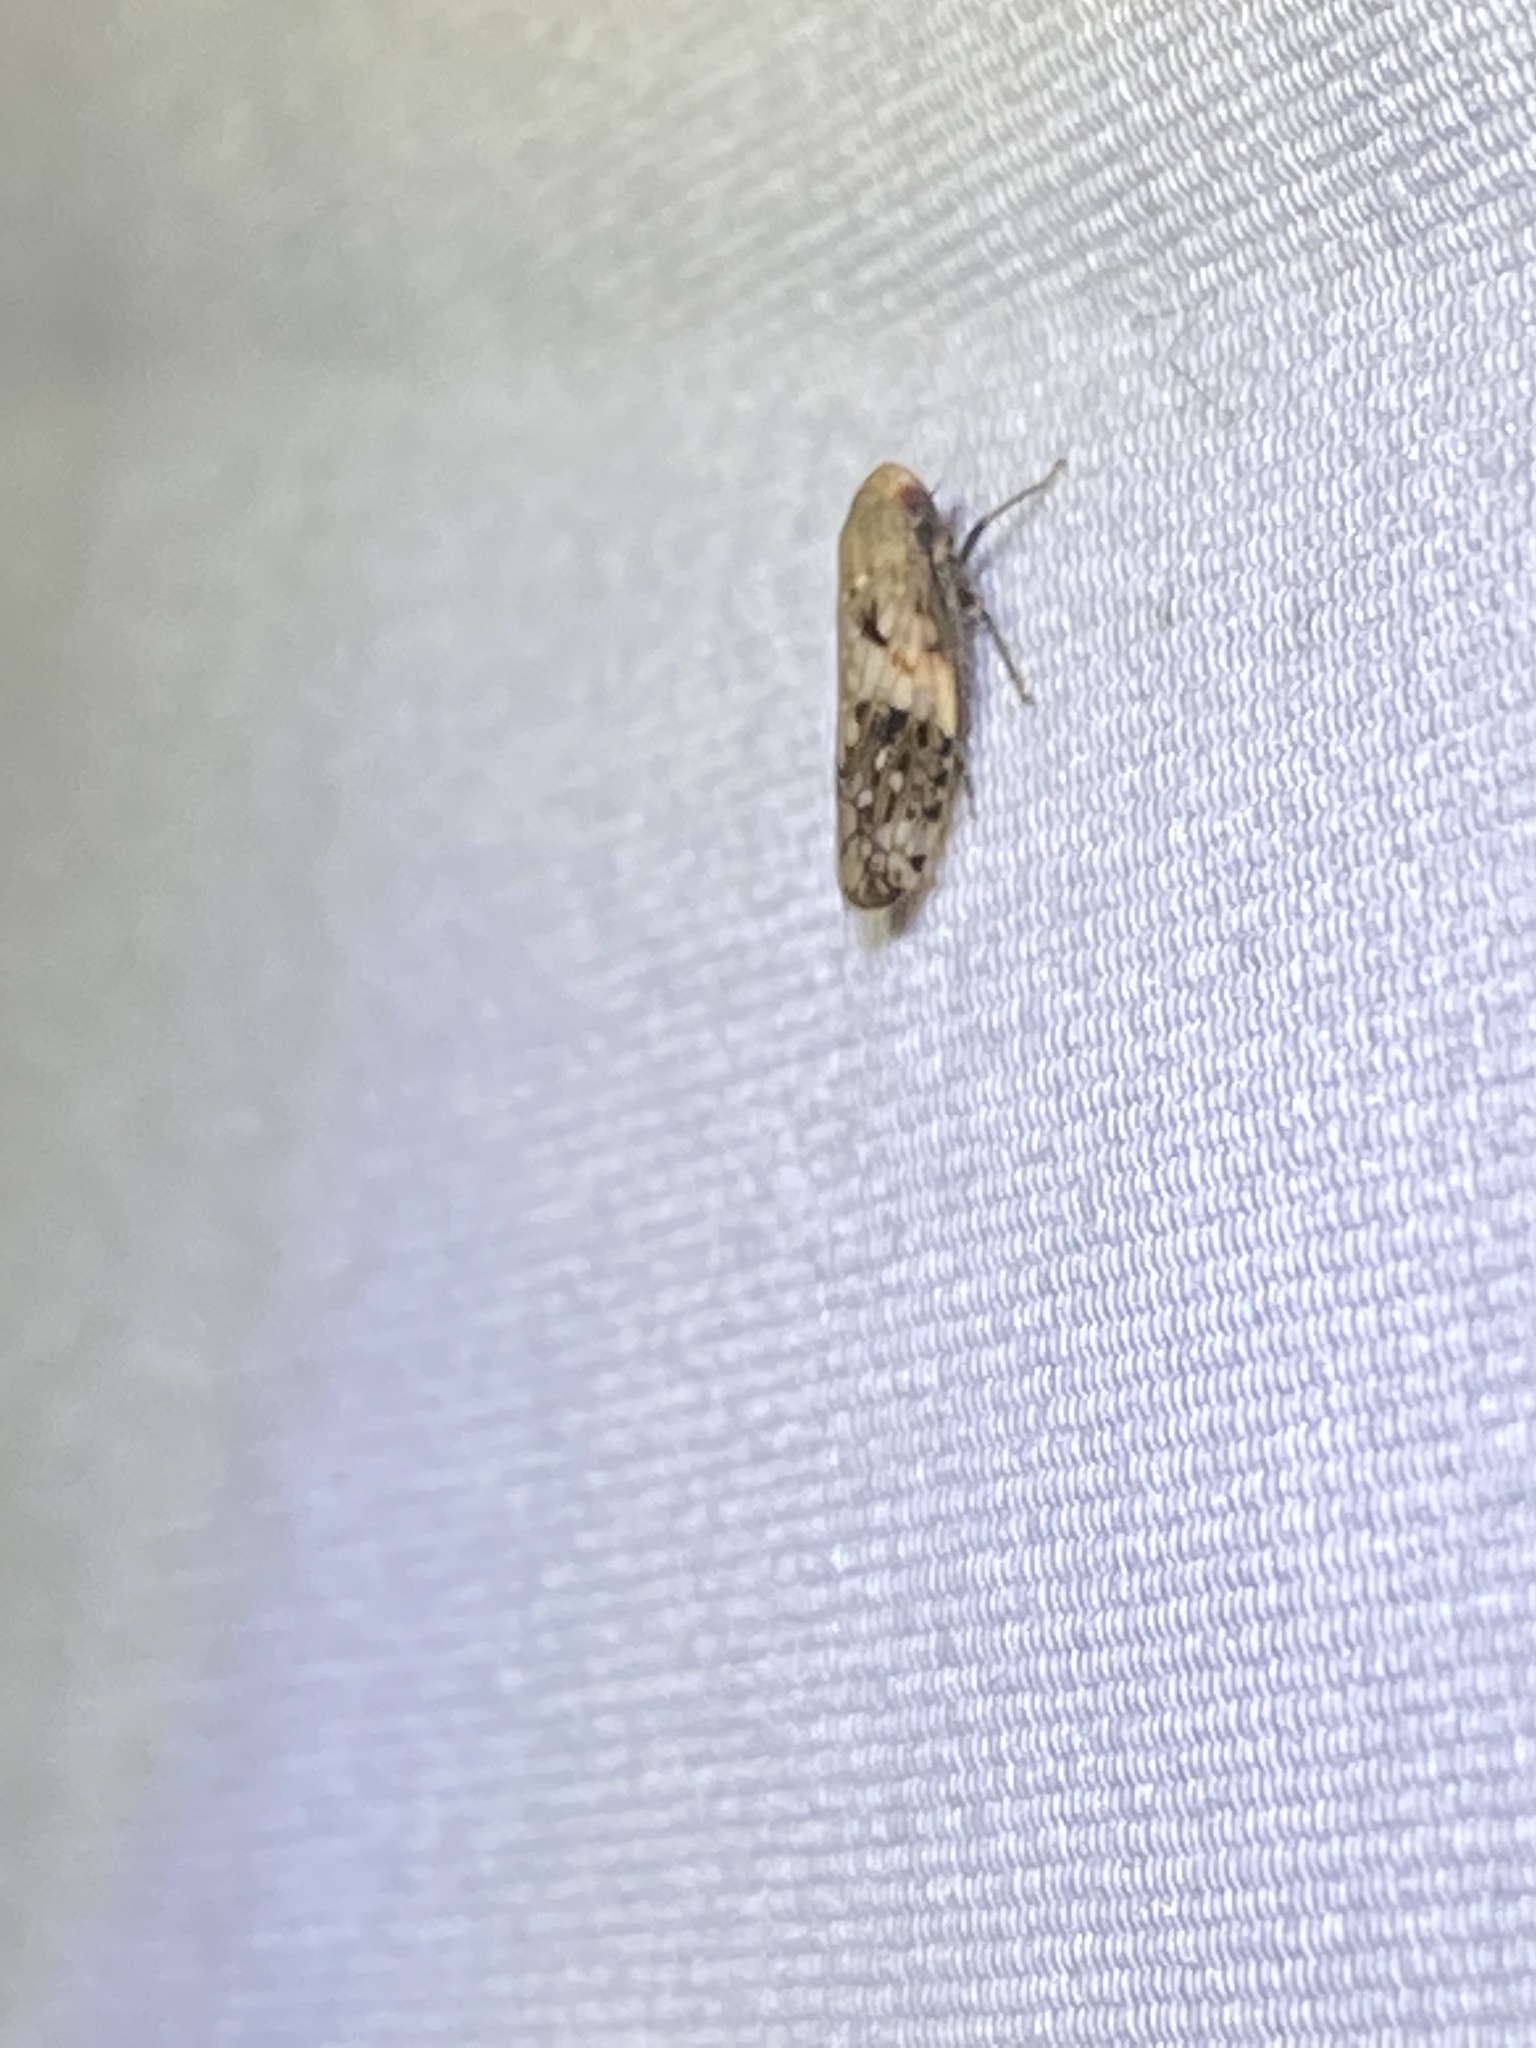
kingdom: Animalia
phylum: Arthropoda
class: Insecta
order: Hemiptera
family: Cicadellidae
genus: Menosoma
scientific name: Menosoma cinctum
